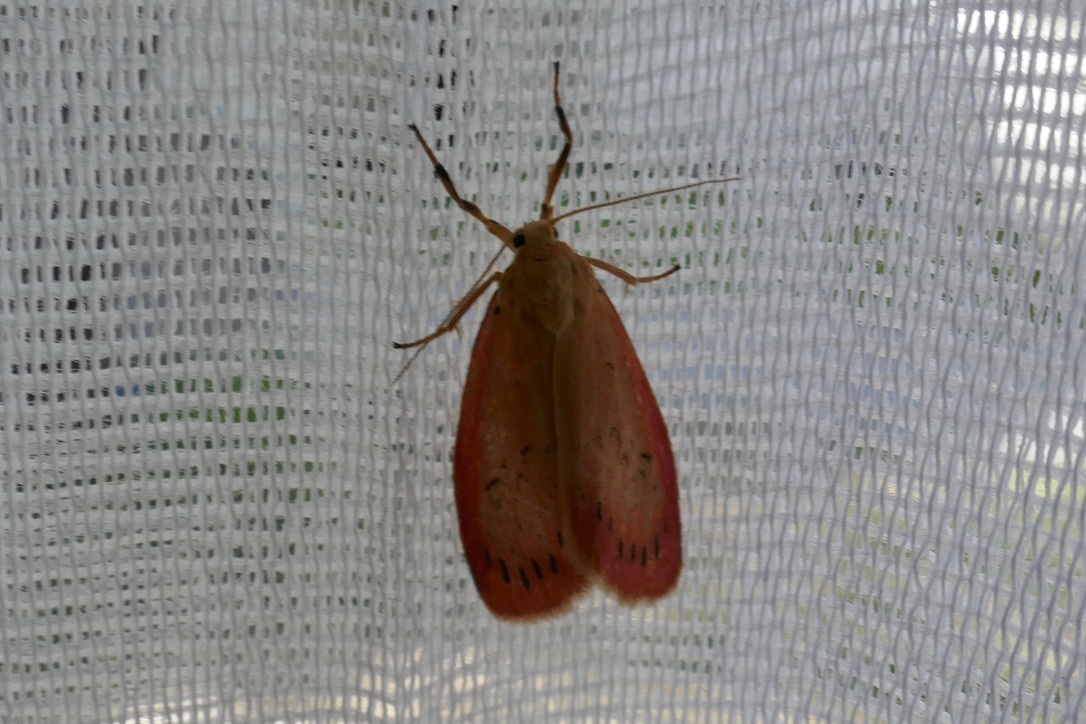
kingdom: Animalia
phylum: Arthropoda
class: Insecta
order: Lepidoptera
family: Erebidae
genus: Miltochrista
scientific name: Miltochrista miniata
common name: Rosy footman
